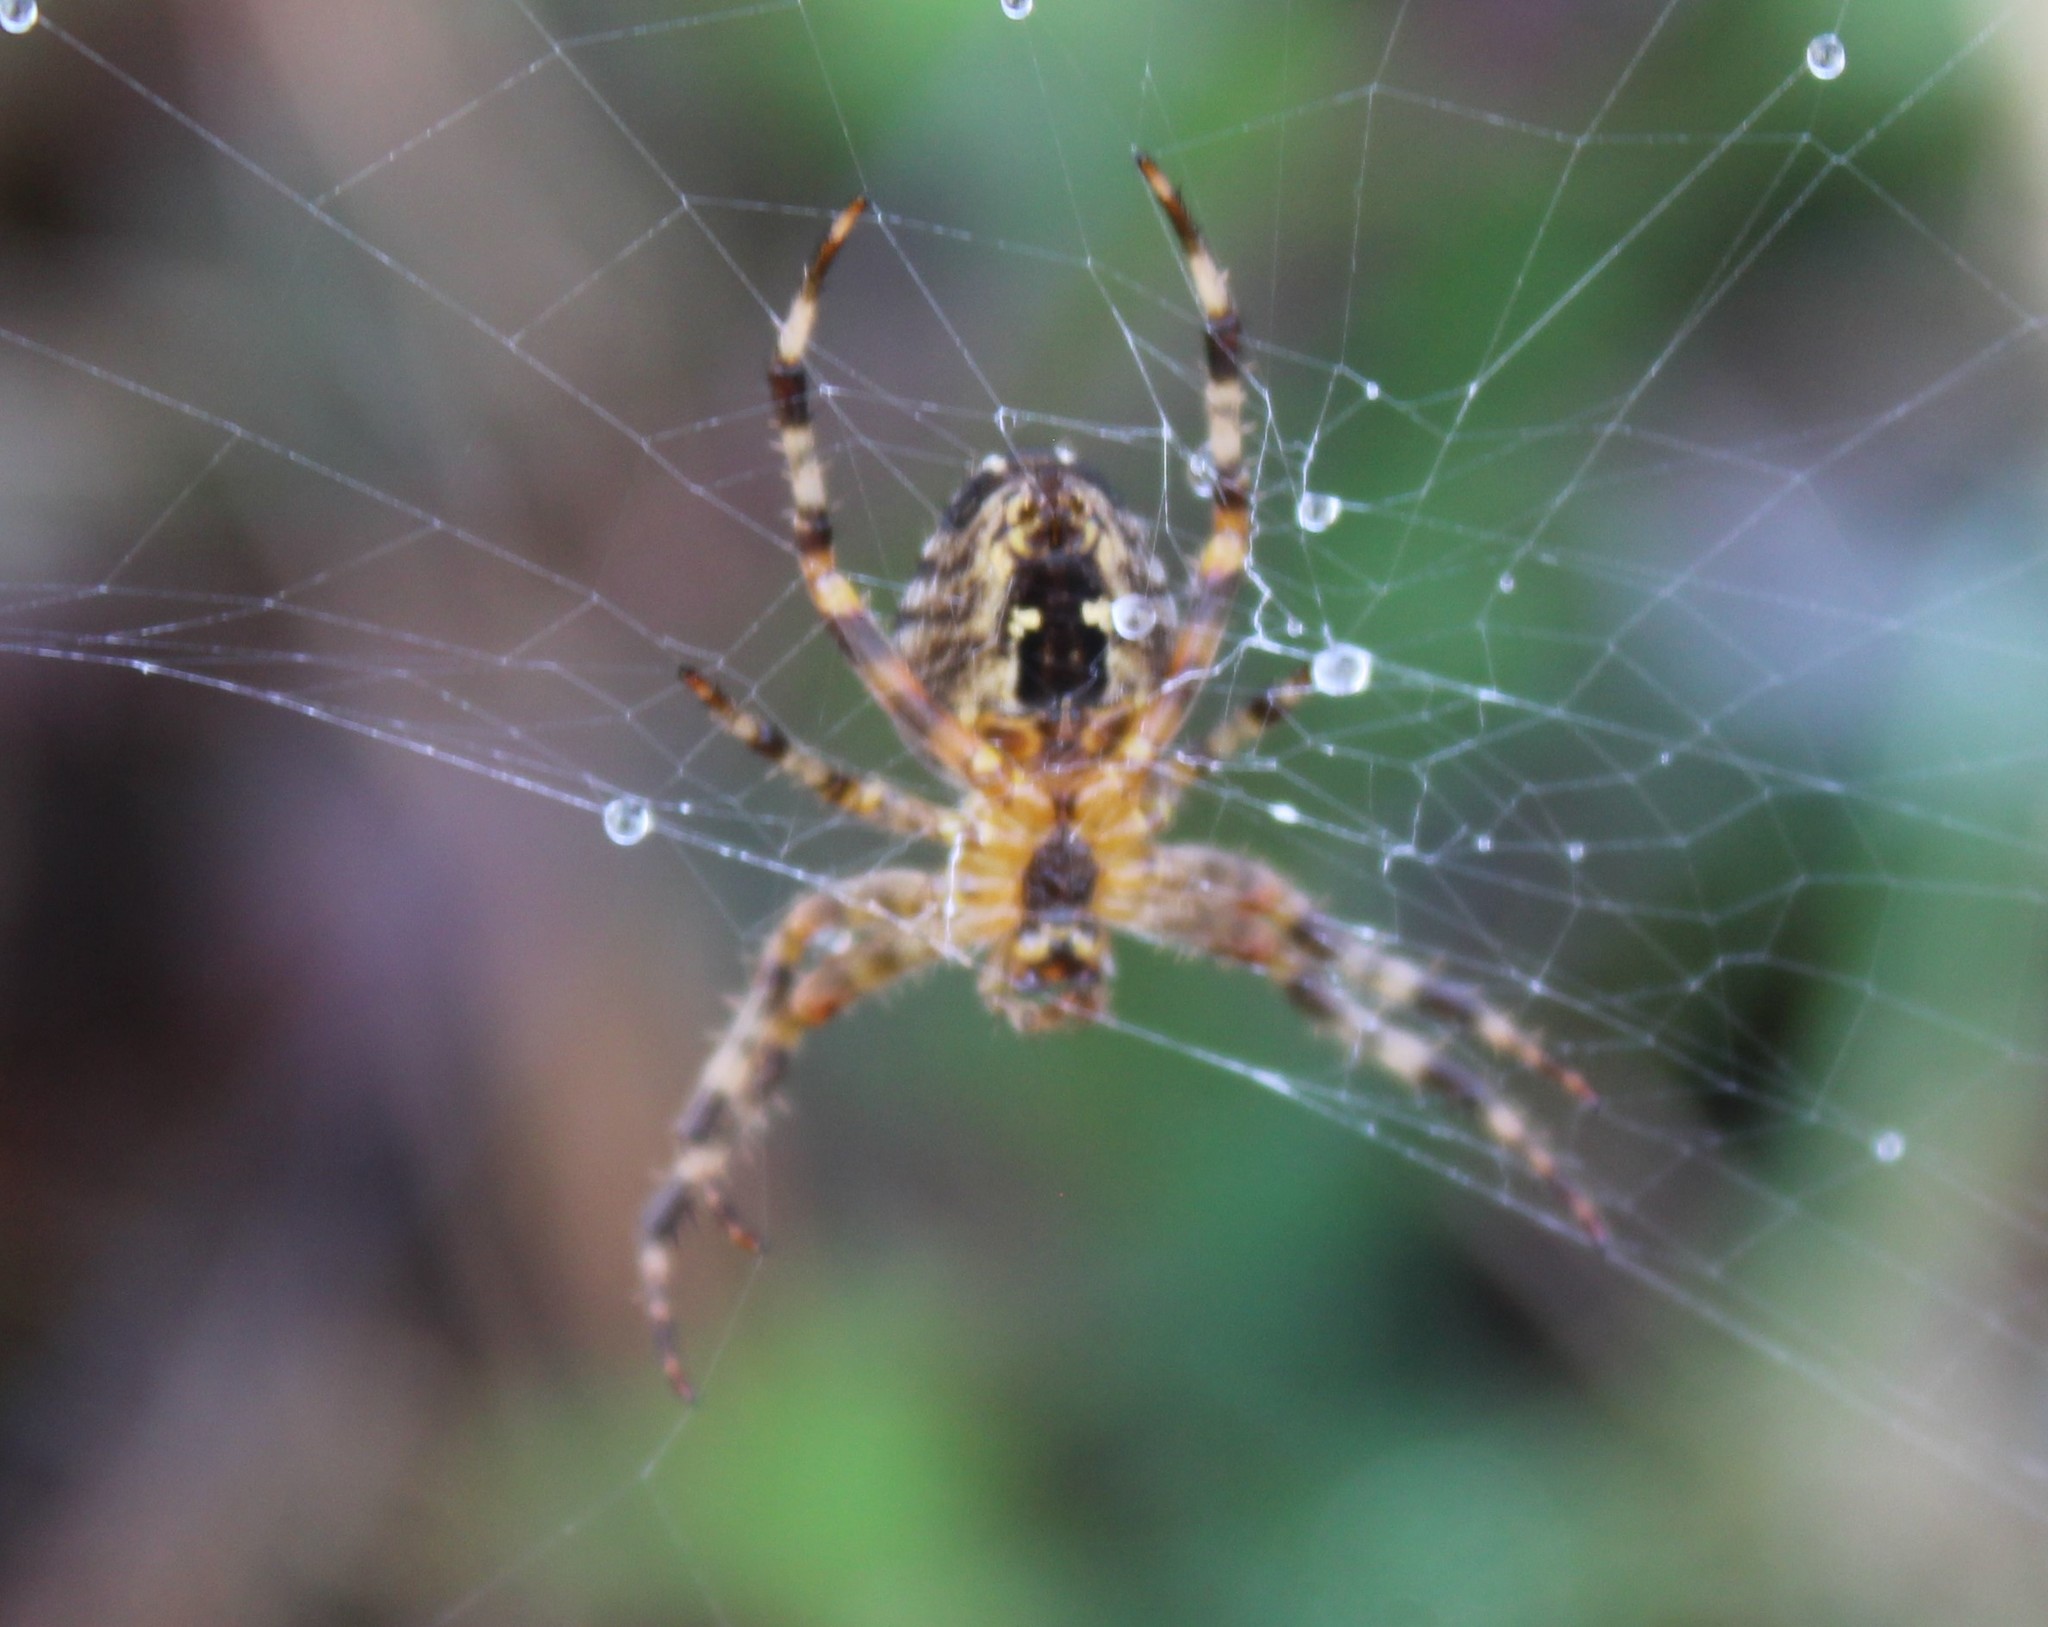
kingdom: Animalia
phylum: Arthropoda
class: Arachnida
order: Araneae
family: Araneidae
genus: Araneus
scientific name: Araneus diadematus
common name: Cross orbweaver
